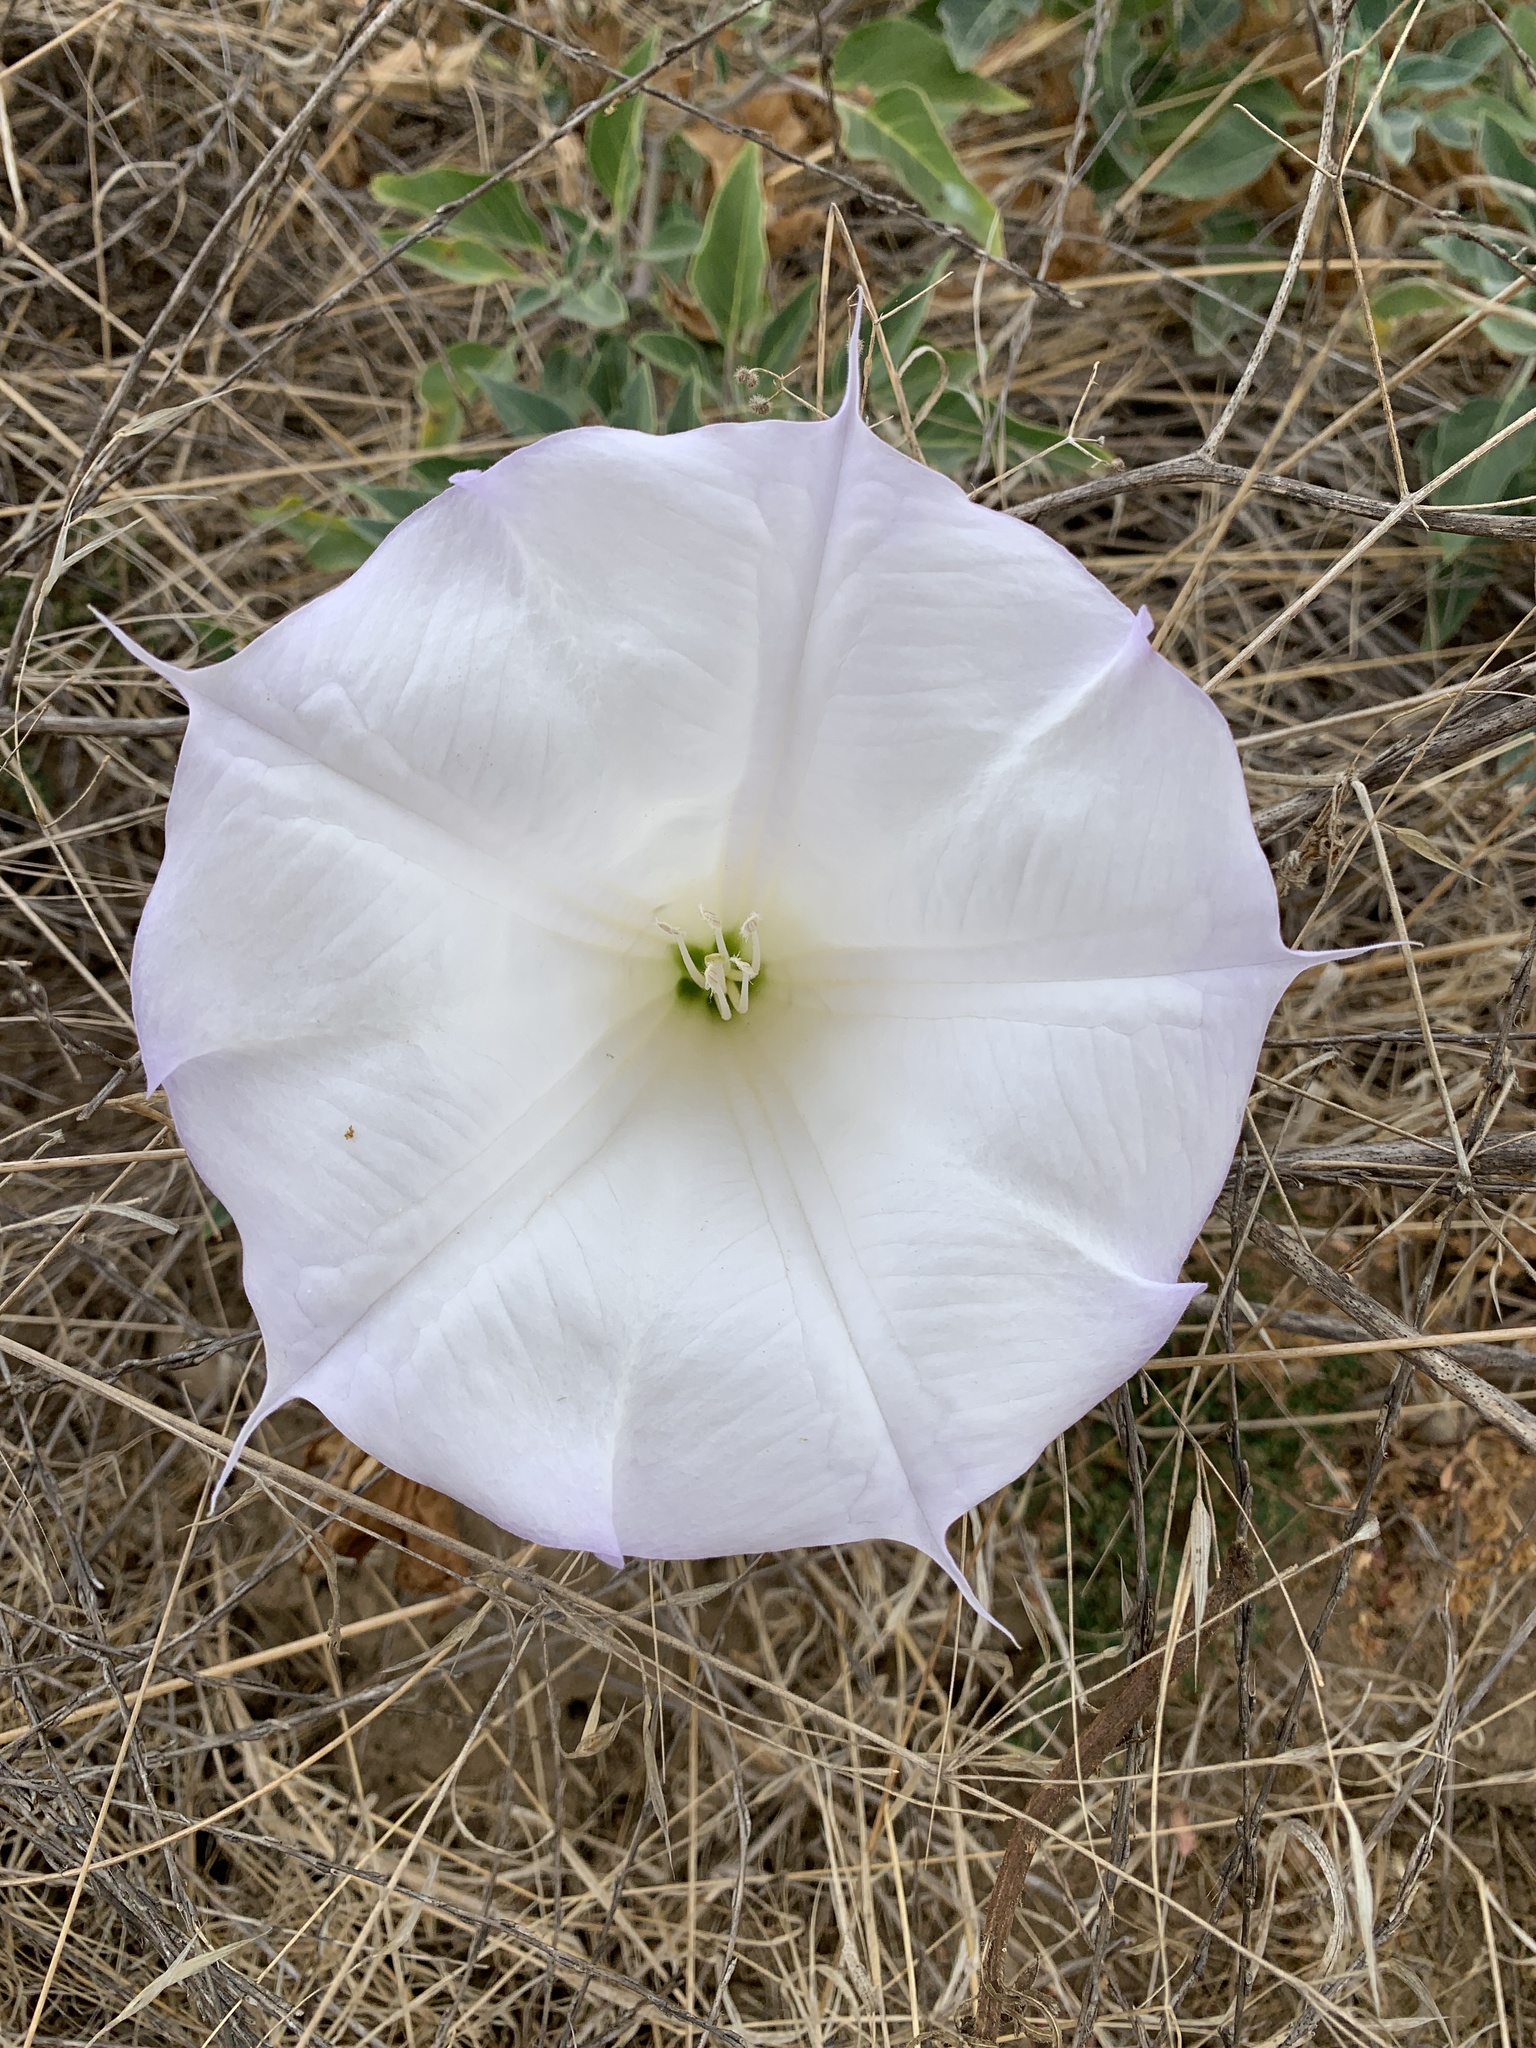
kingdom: Plantae
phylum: Tracheophyta
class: Magnoliopsida
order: Solanales
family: Solanaceae
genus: Datura
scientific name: Datura wrightii
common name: Sacred thorn-apple
